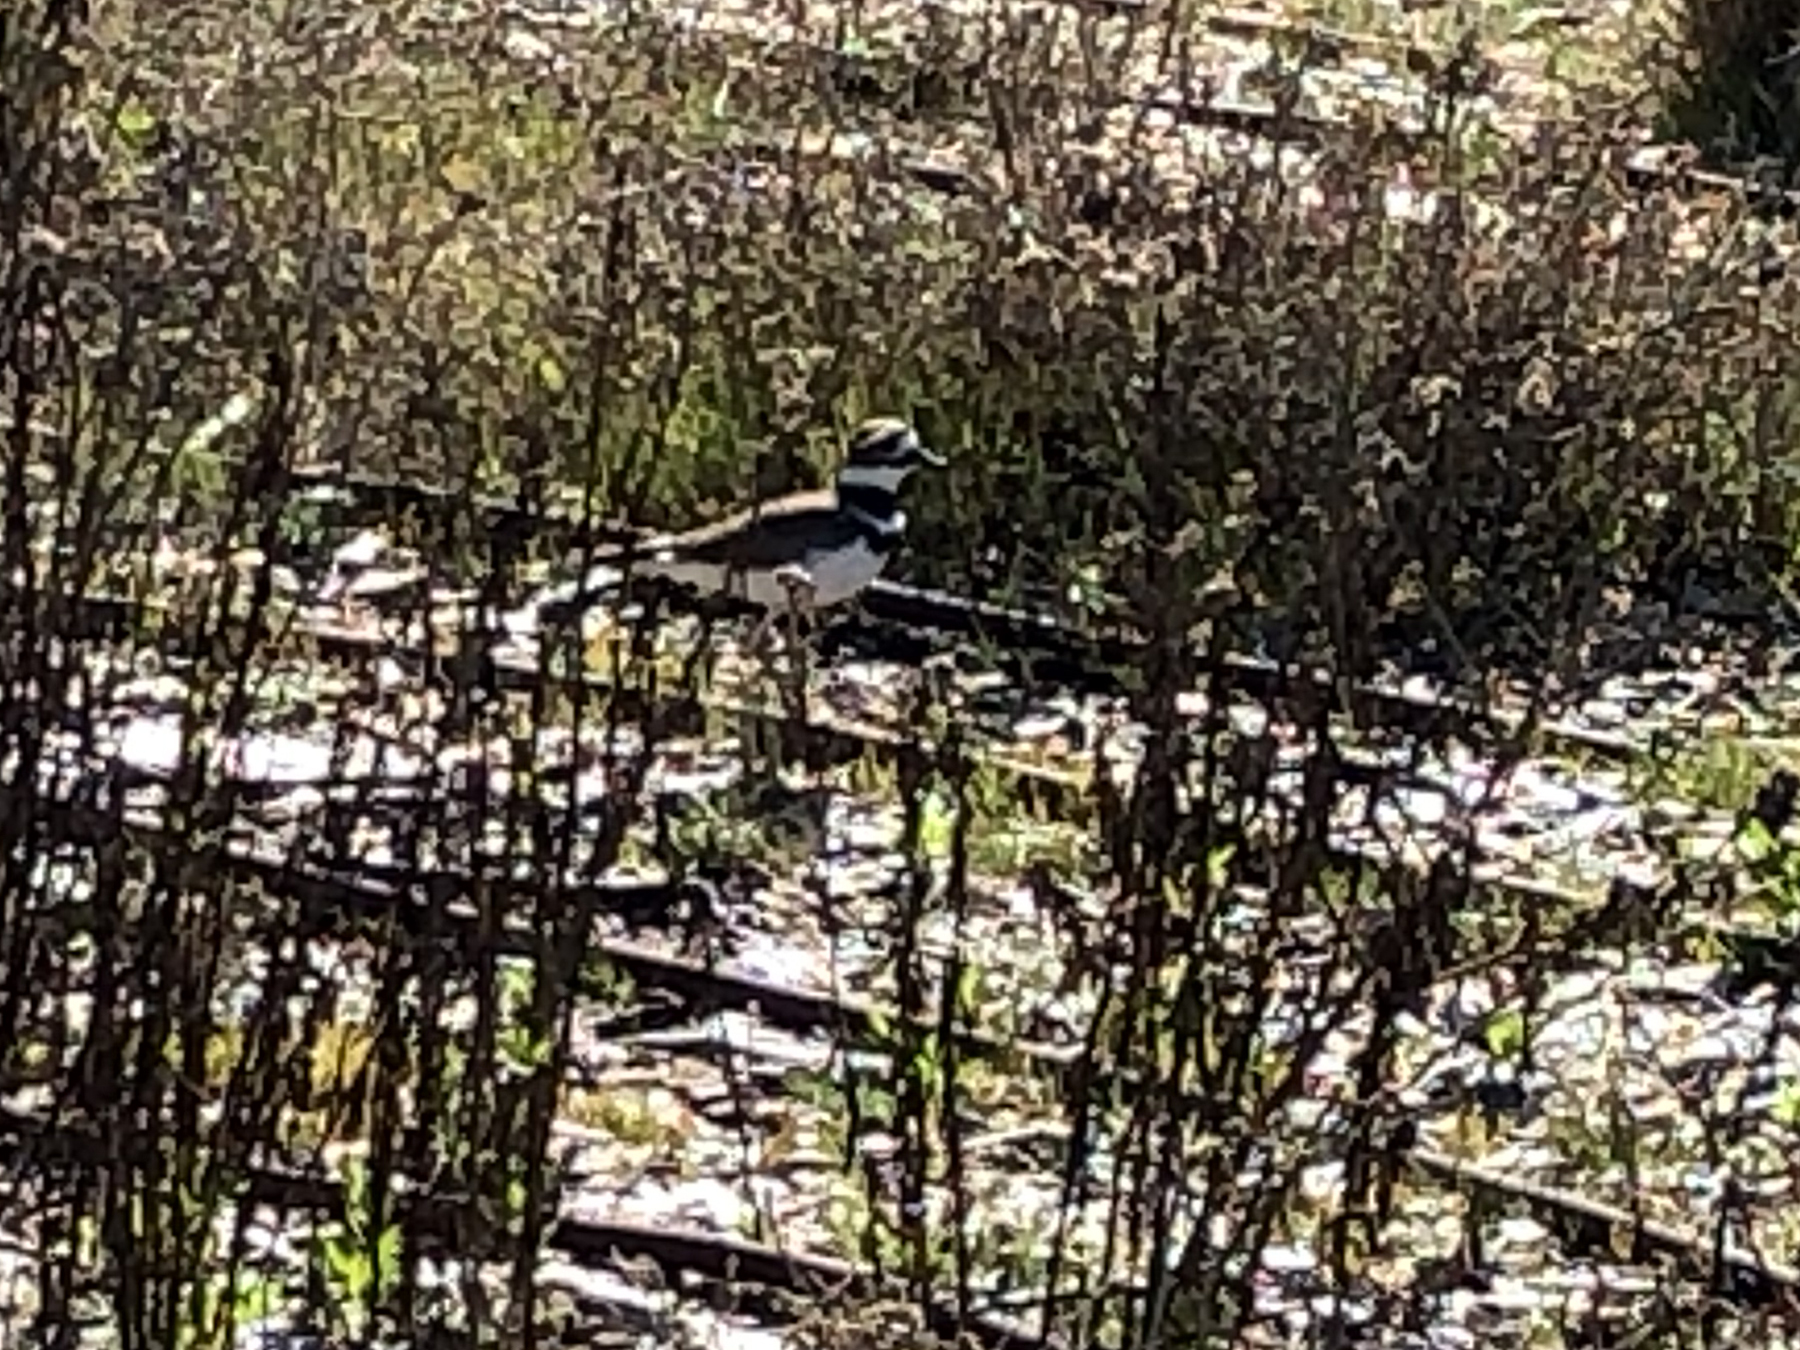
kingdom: Animalia
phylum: Chordata
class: Aves
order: Charadriiformes
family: Charadriidae
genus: Charadrius
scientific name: Charadrius vociferus
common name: Killdeer
